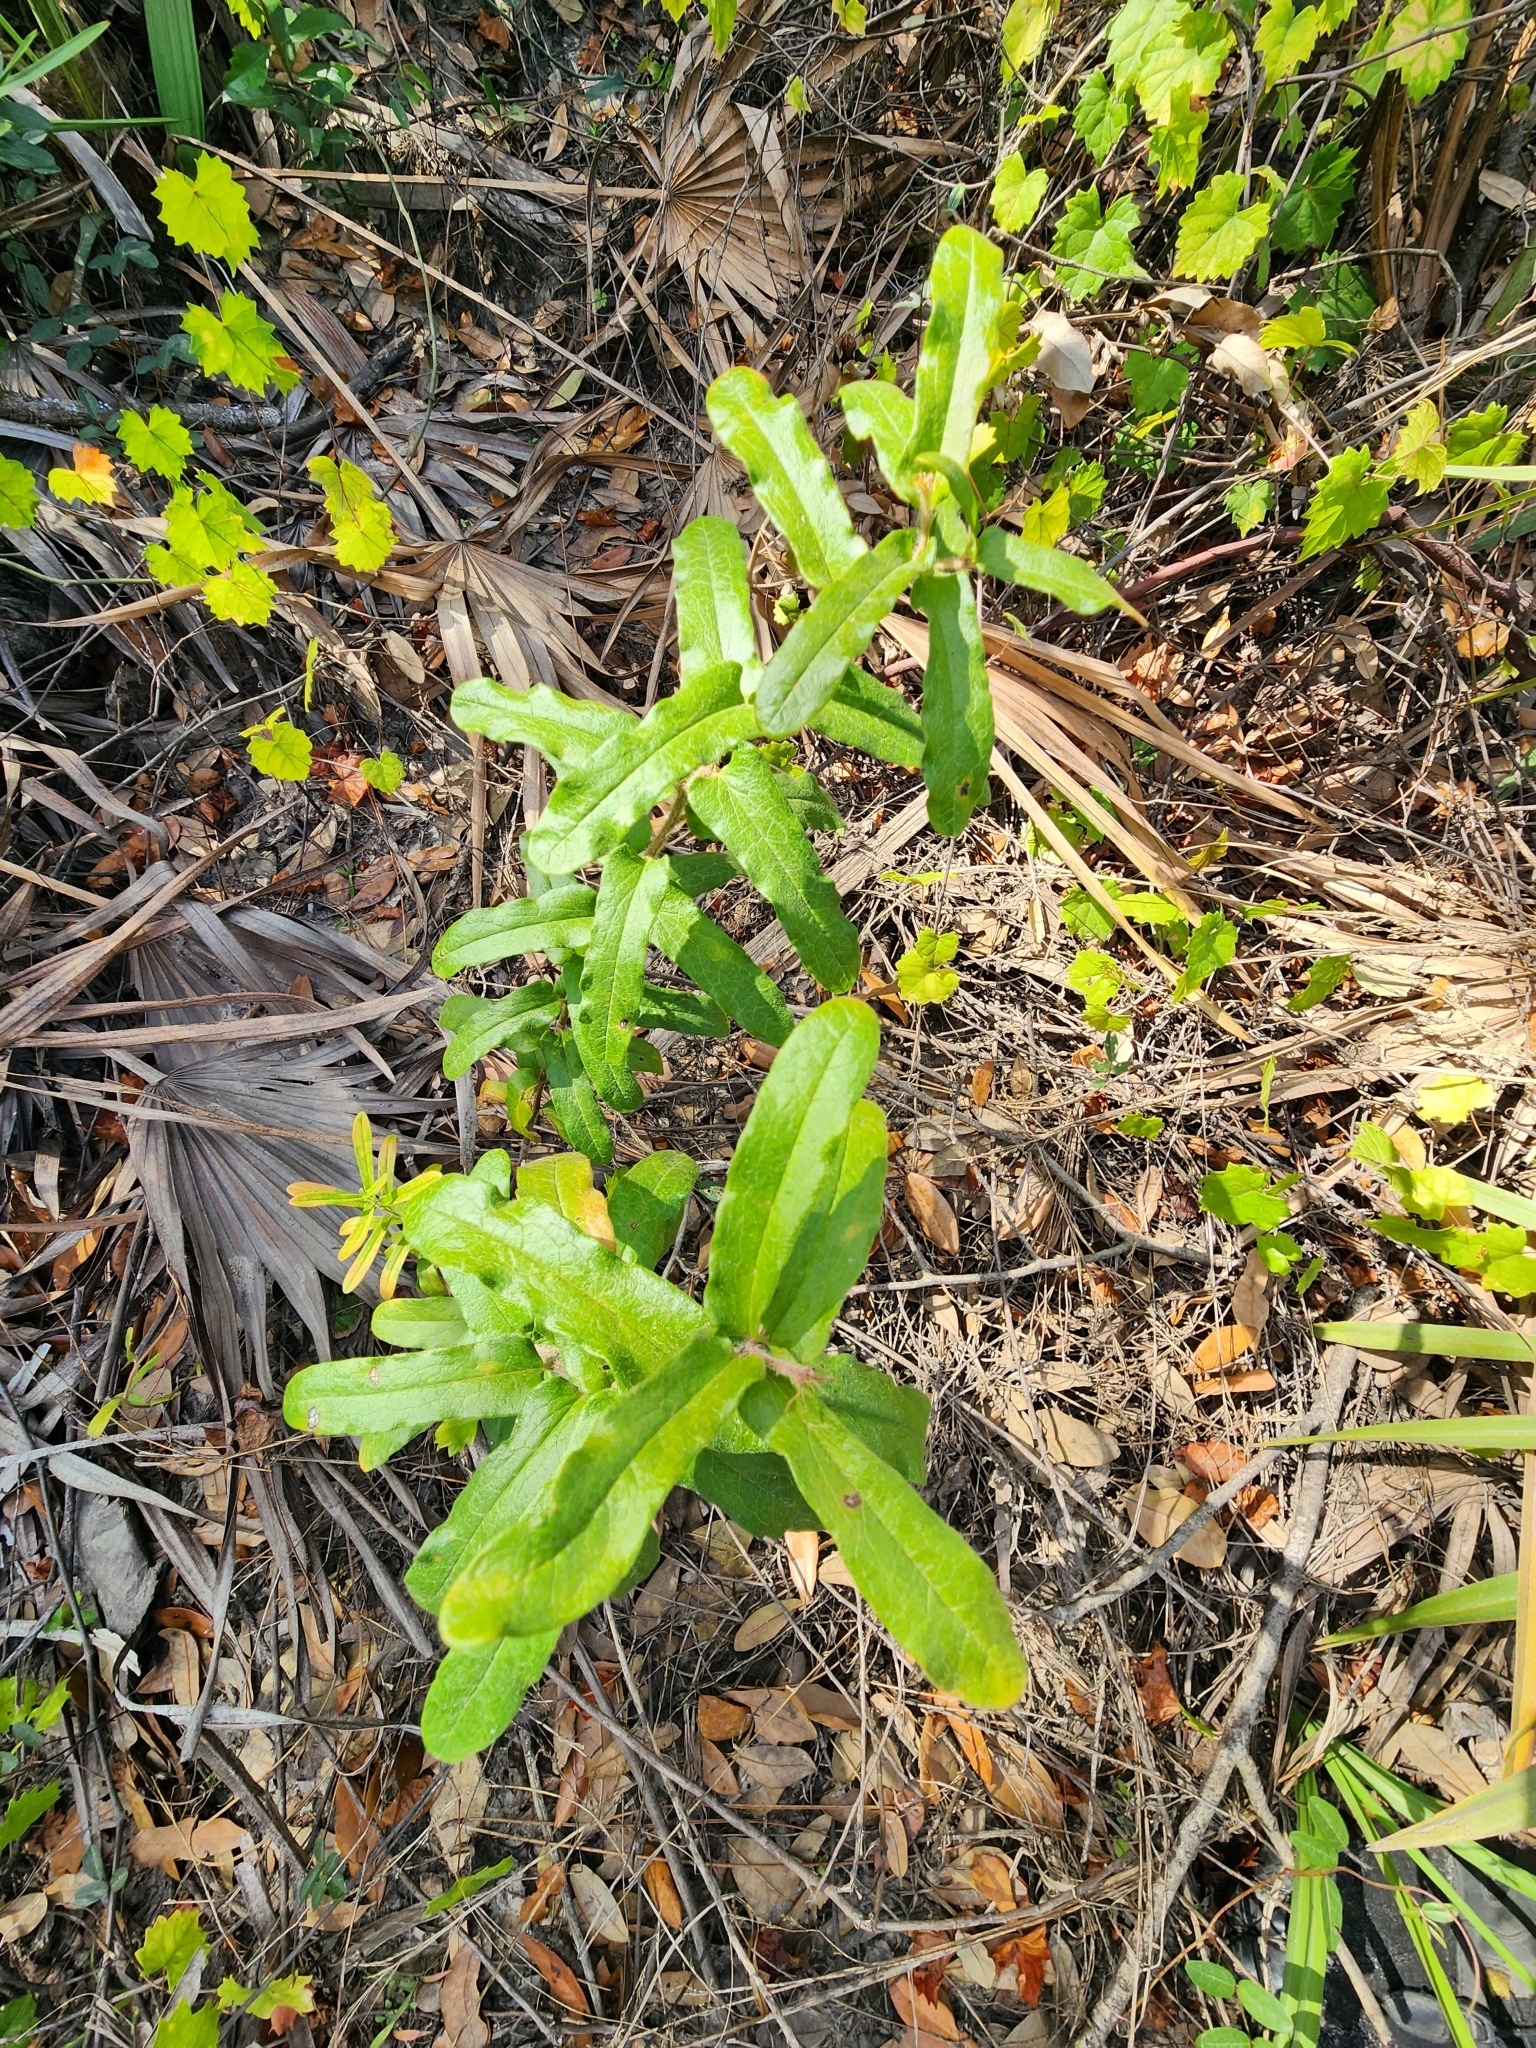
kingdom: Plantae
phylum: Tracheophyta
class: Magnoliopsida
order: Gentianales
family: Apocynaceae
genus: Asclepias
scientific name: Asclepias tuberosa
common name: Butterfly milkweed
